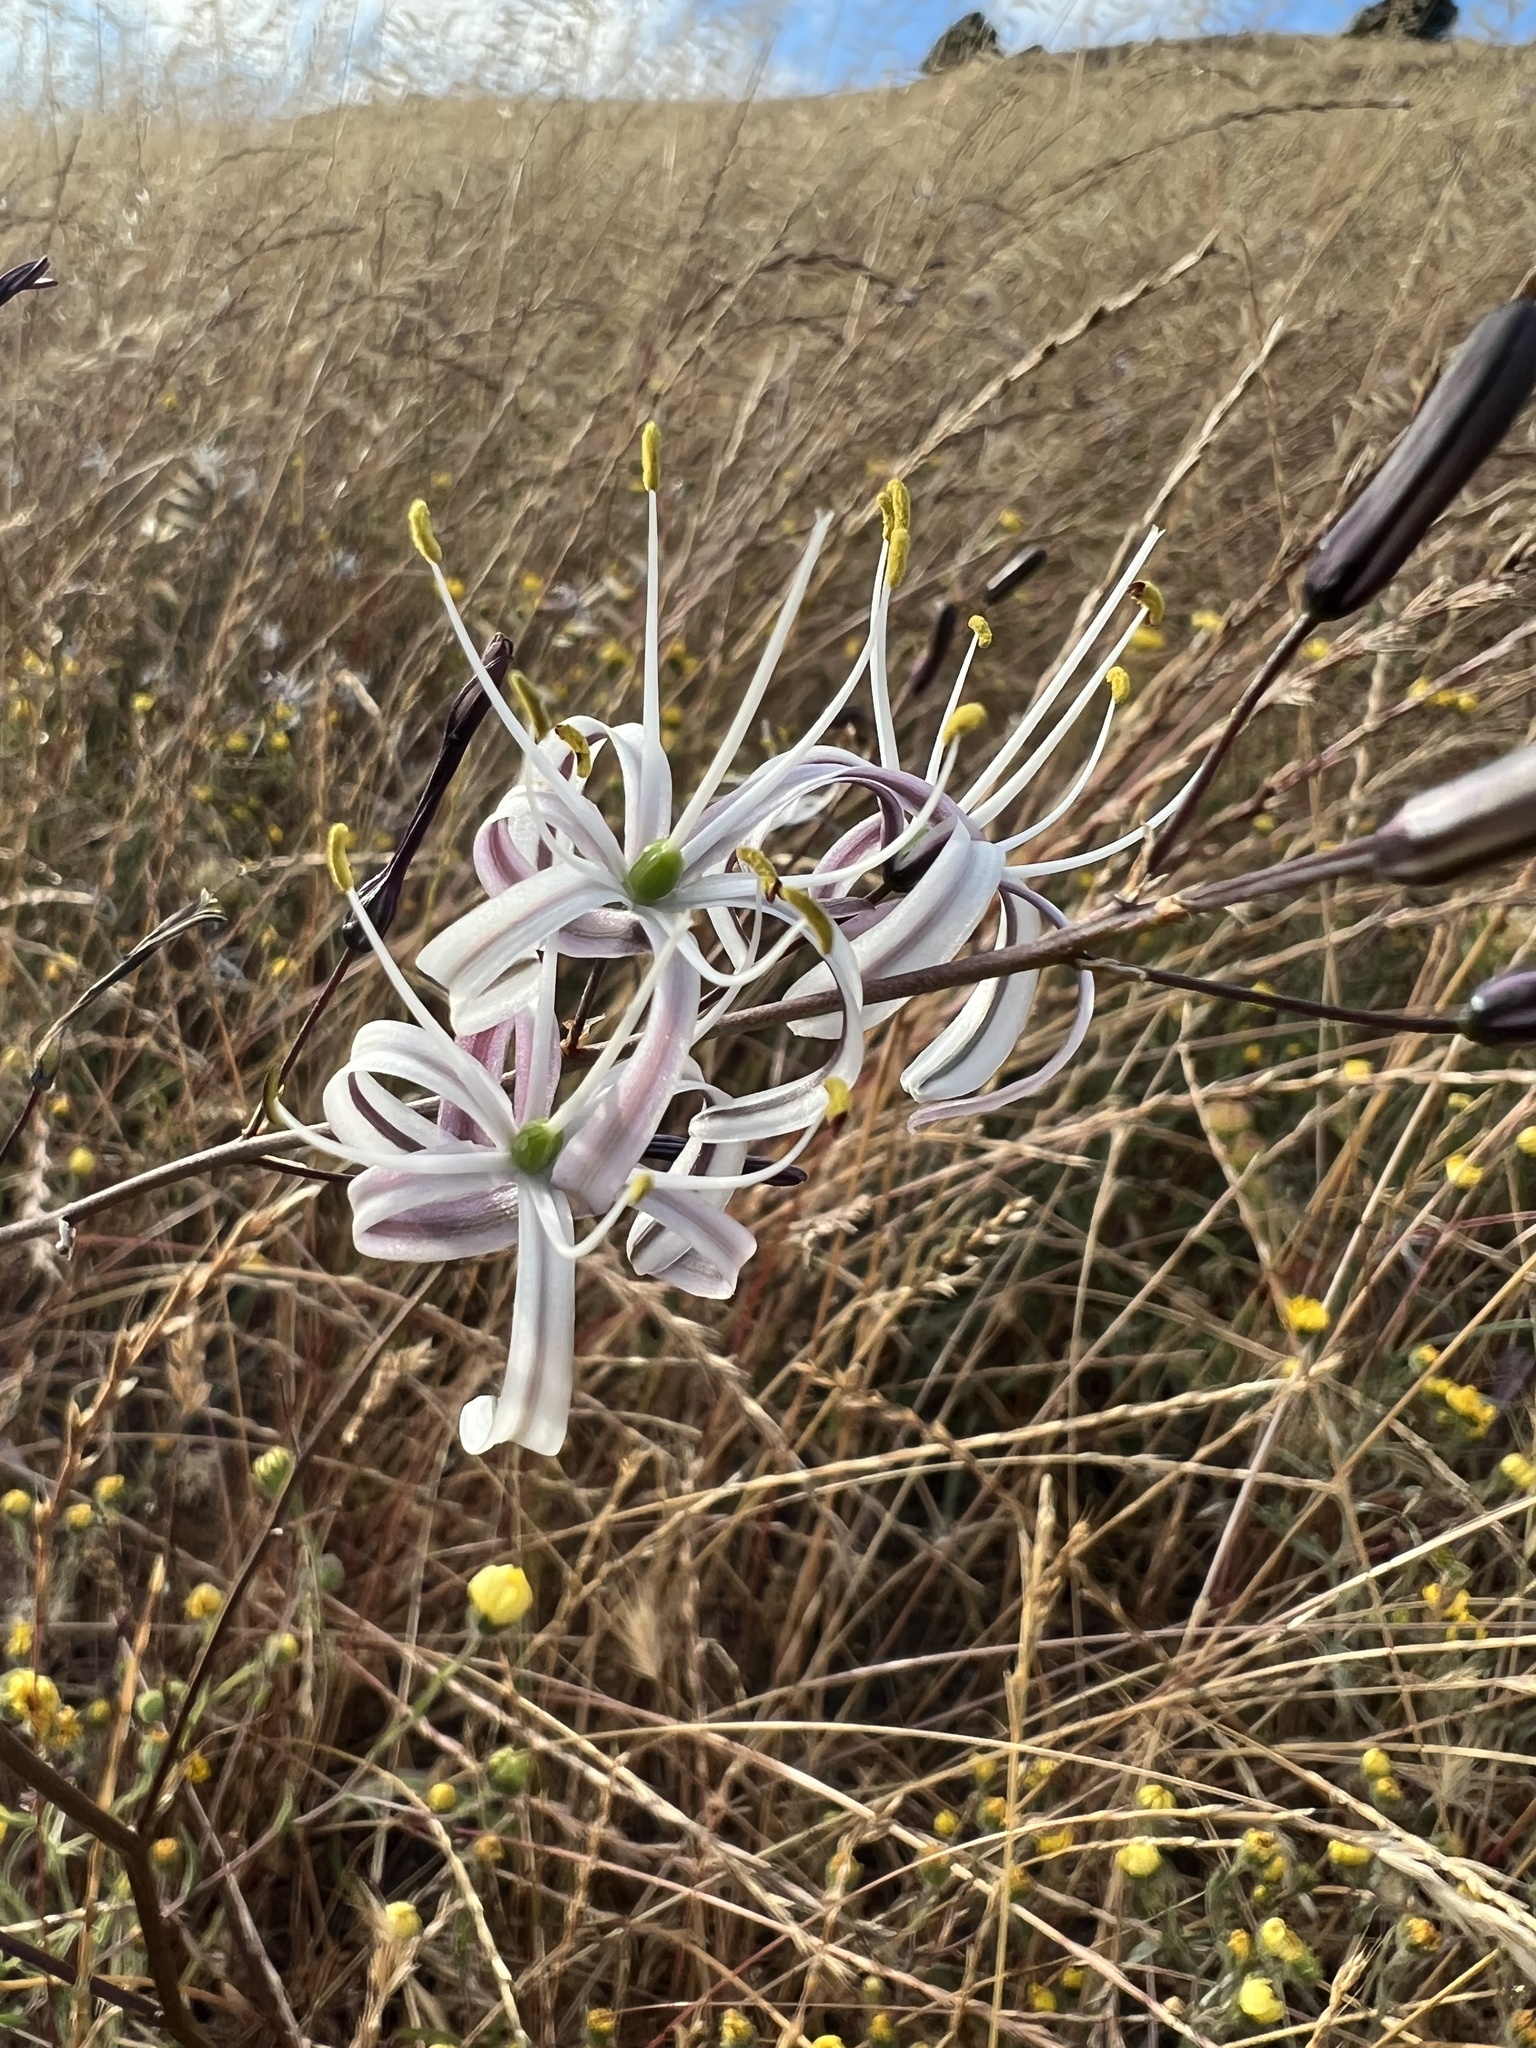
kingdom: Plantae
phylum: Tracheophyta
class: Liliopsida
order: Asparagales
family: Asparagaceae
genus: Chlorogalum
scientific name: Chlorogalum pomeridianum
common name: Amole
